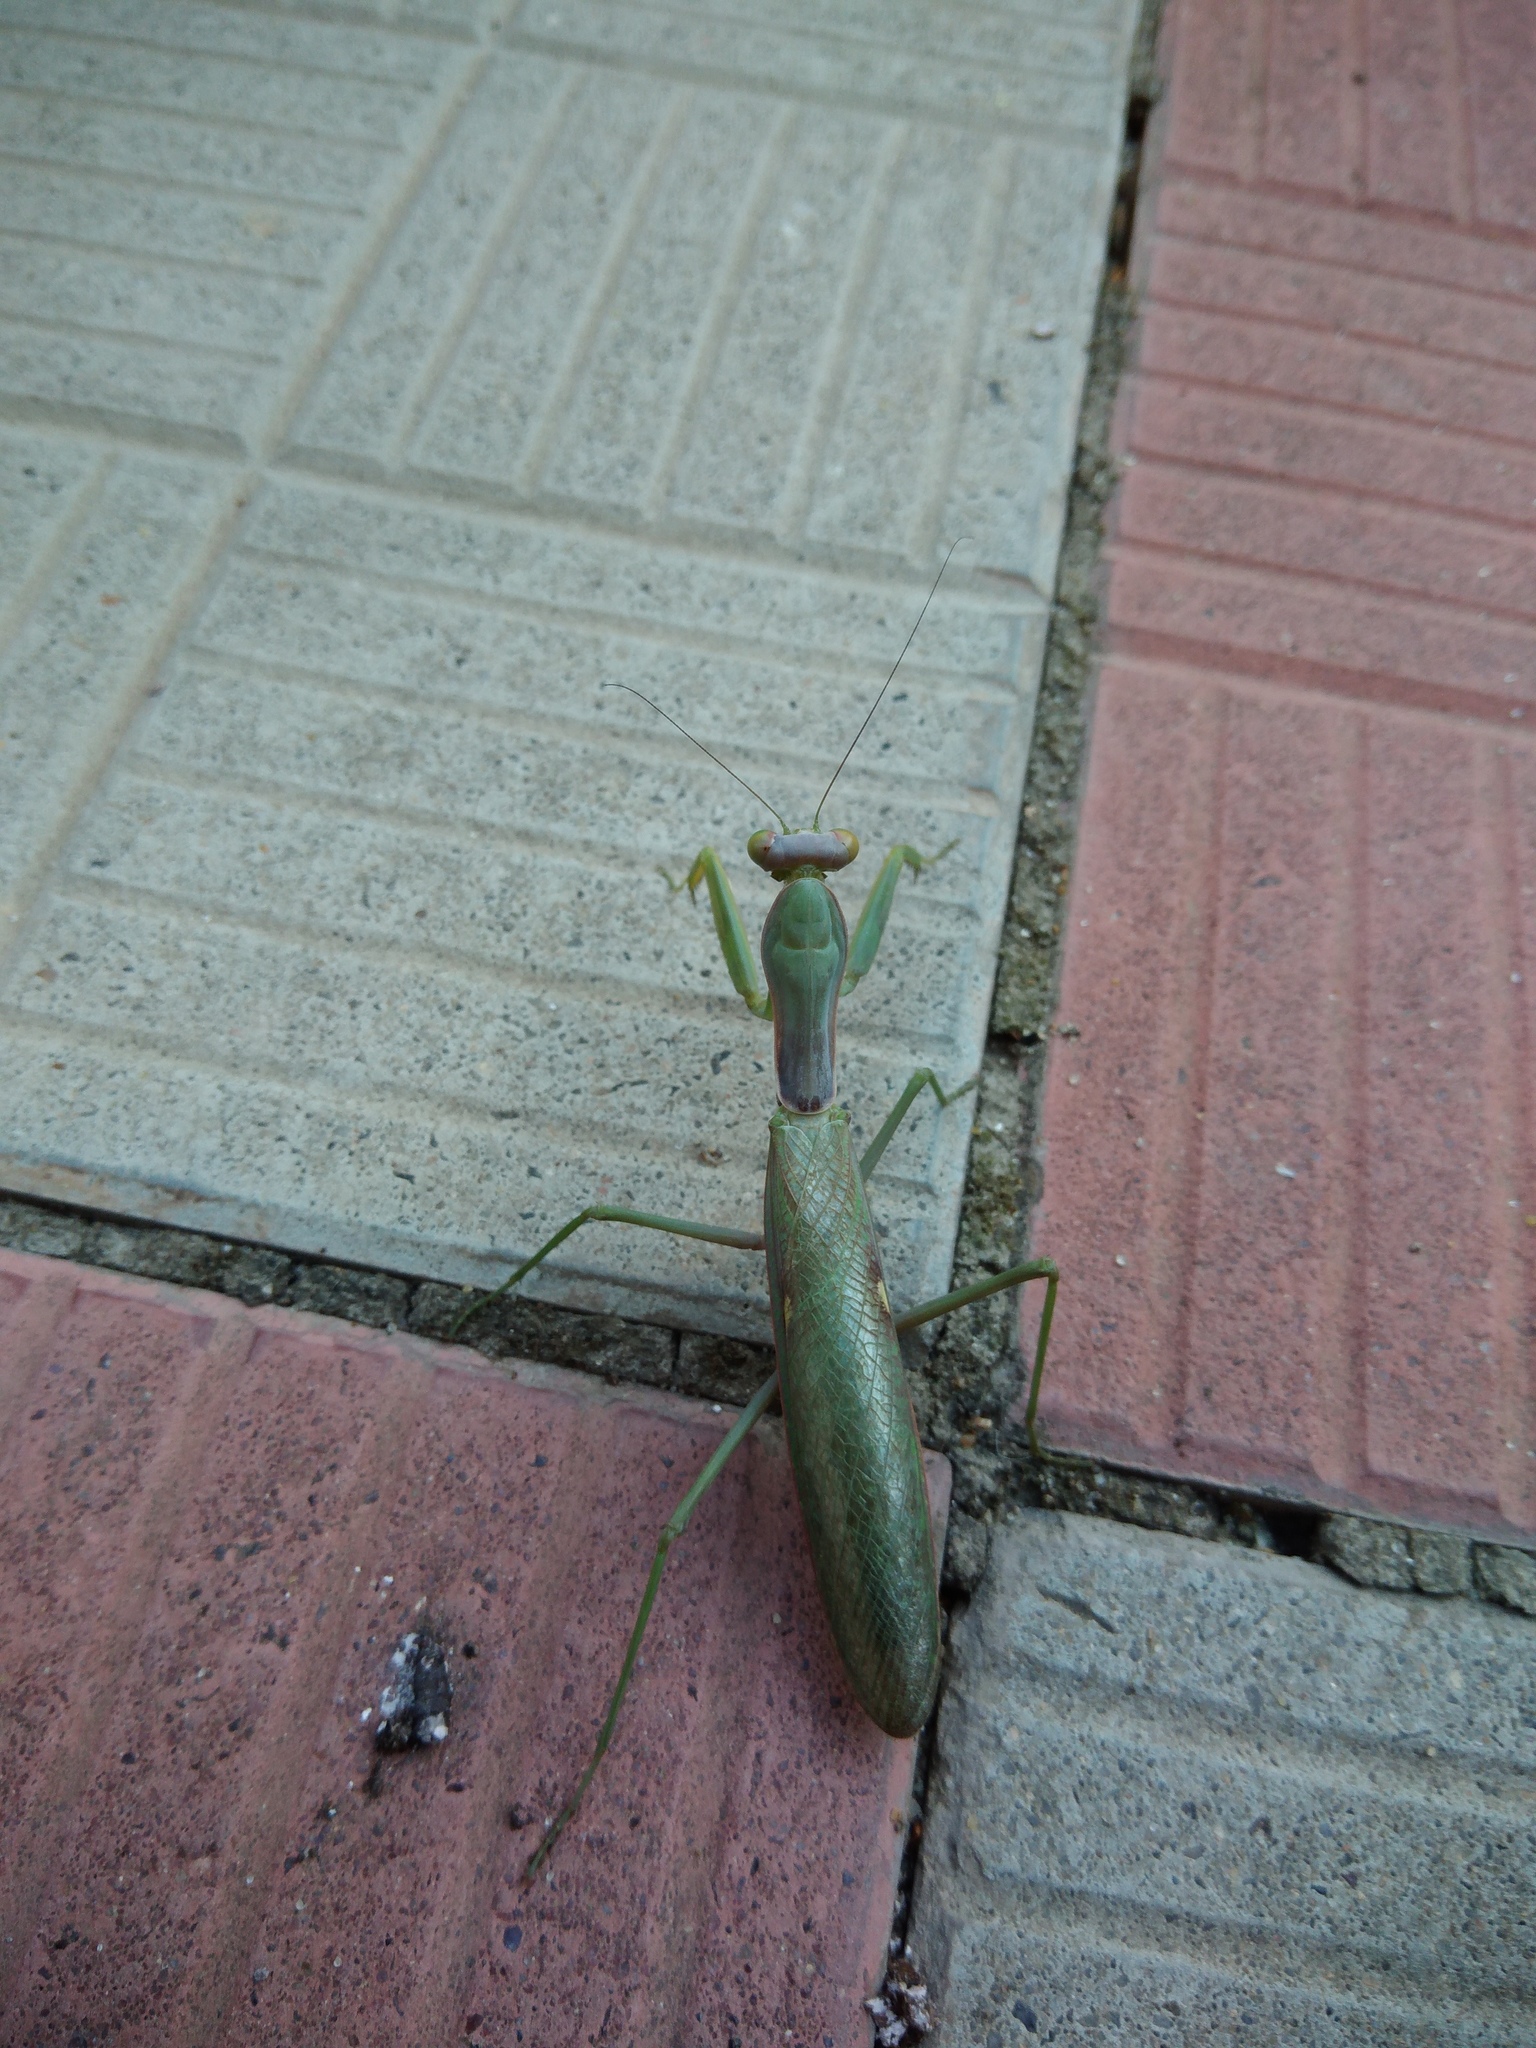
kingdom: Animalia
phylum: Arthropoda
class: Insecta
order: Mantodea
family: Mantidae
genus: Hierodula
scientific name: Hierodula transcaucasica
